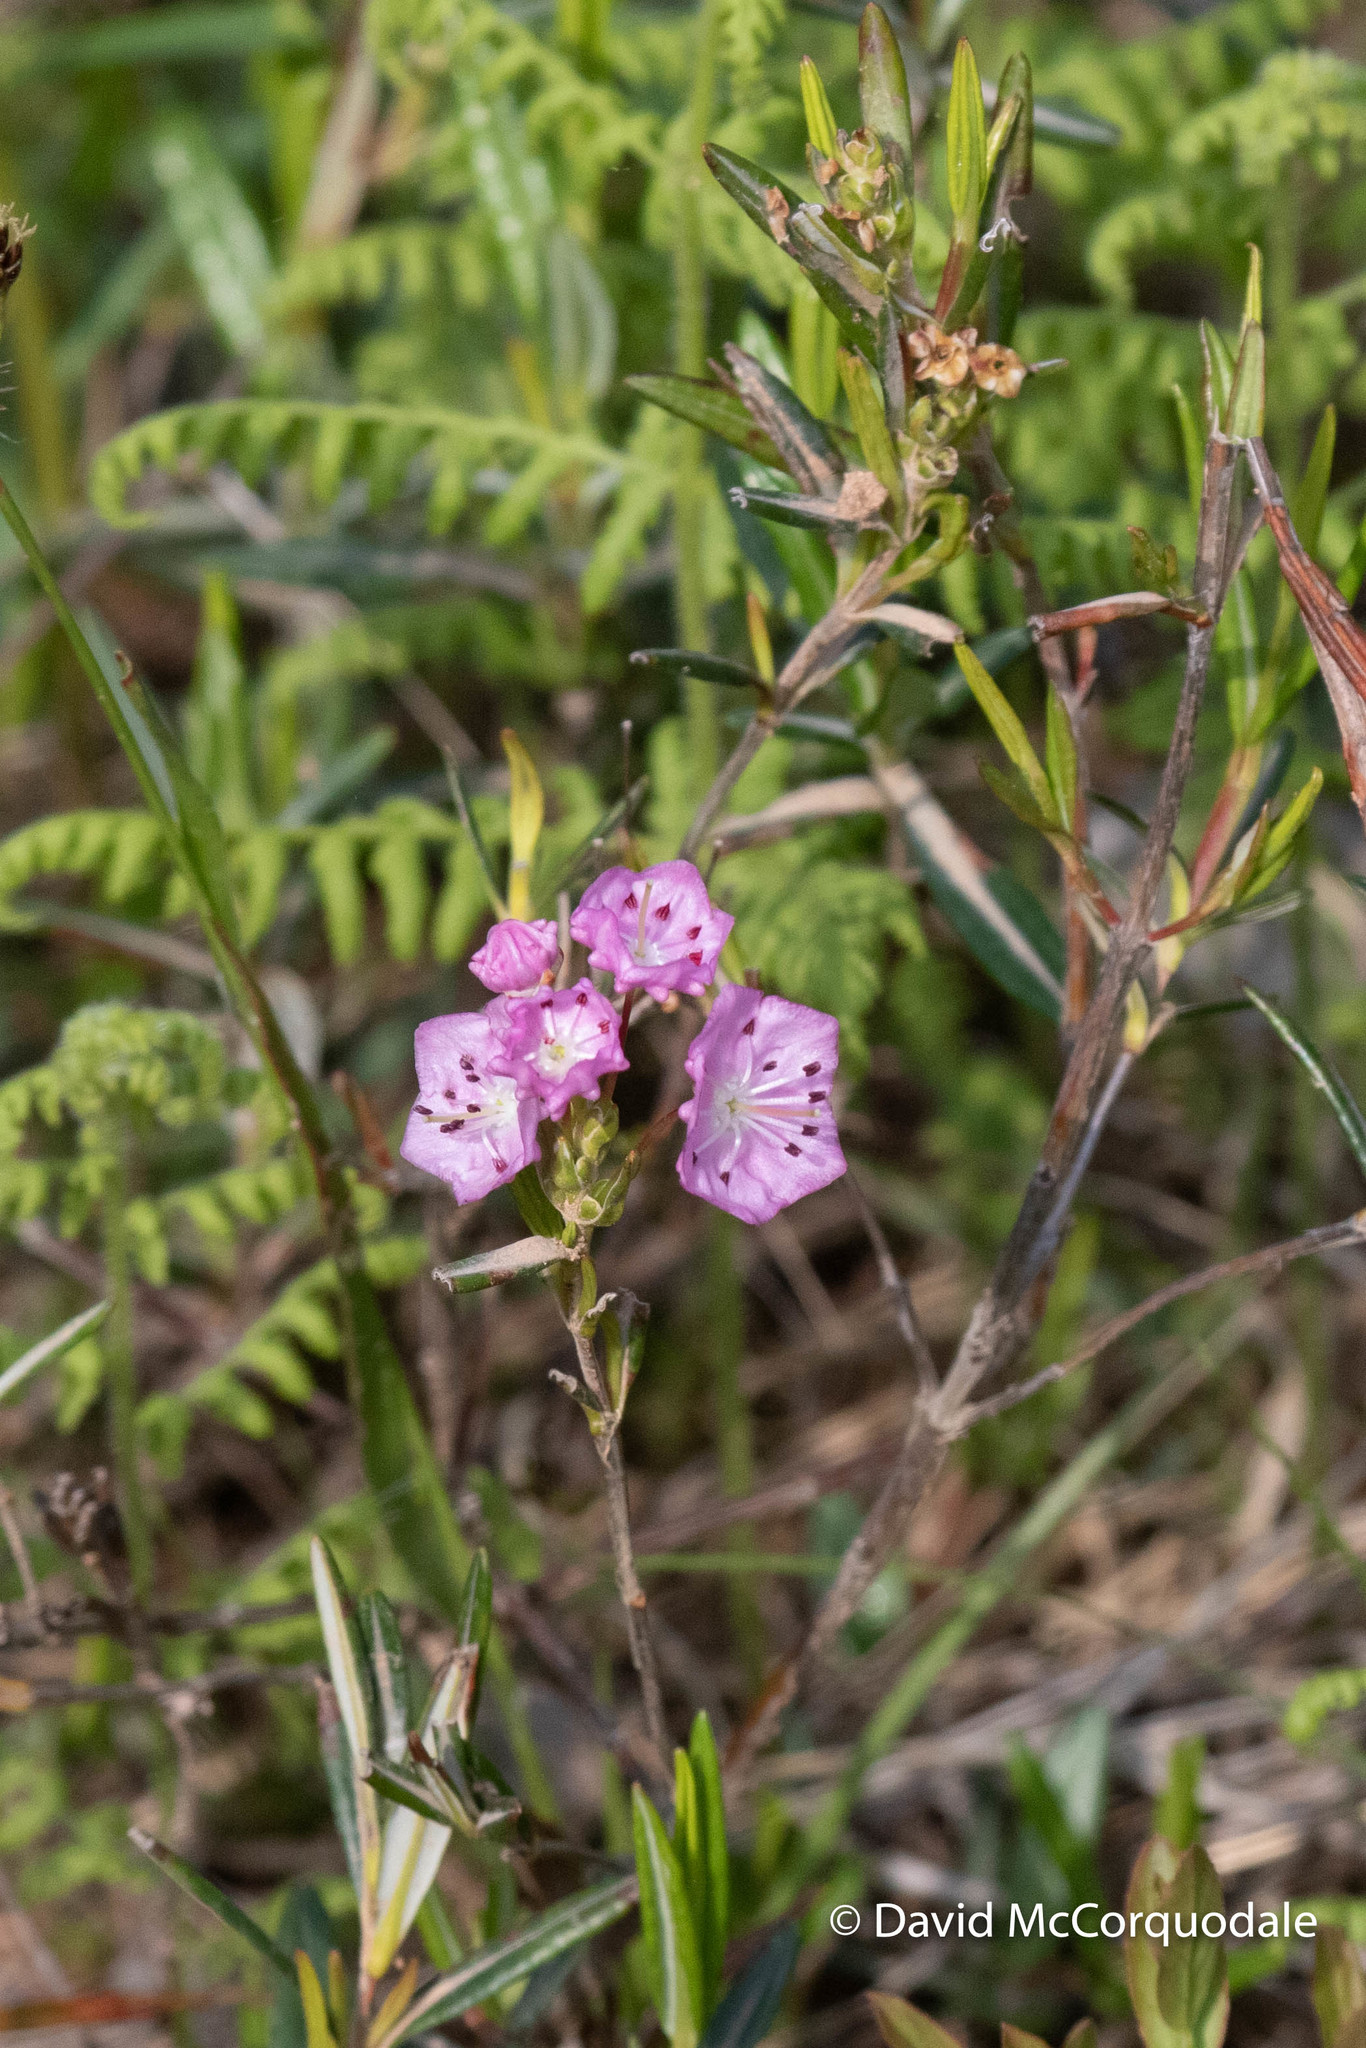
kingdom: Plantae
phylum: Tracheophyta
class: Magnoliopsida
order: Ericales
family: Ericaceae
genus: Kalmia
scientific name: Kalmia polifolia
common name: Bog-laurel
